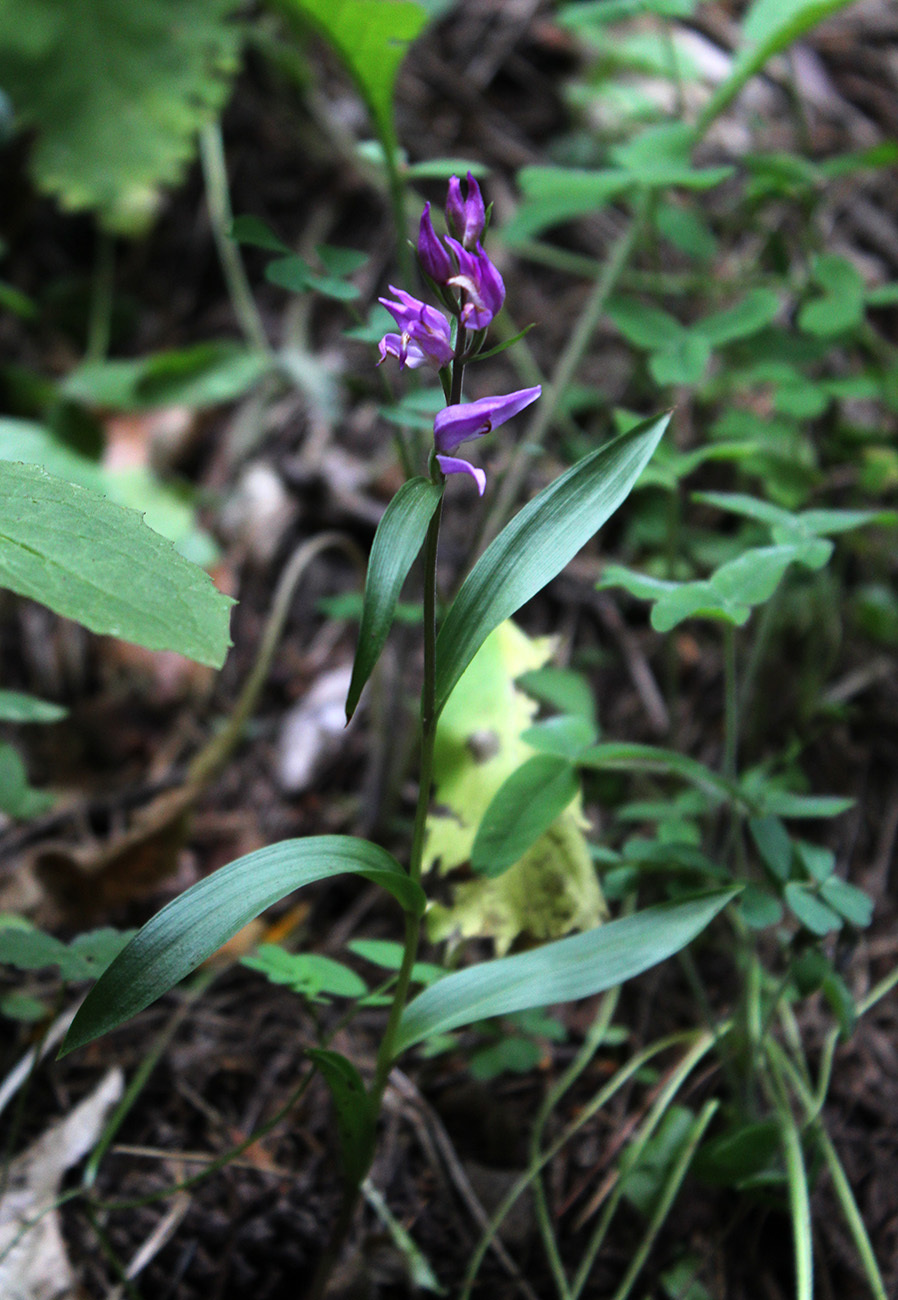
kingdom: Plantae
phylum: Tracheophyta
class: Liliopsida
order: Asparagales
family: Orchidaceae
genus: Cephalanthera
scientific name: Cephalanthera rubra
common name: Red helleborine
